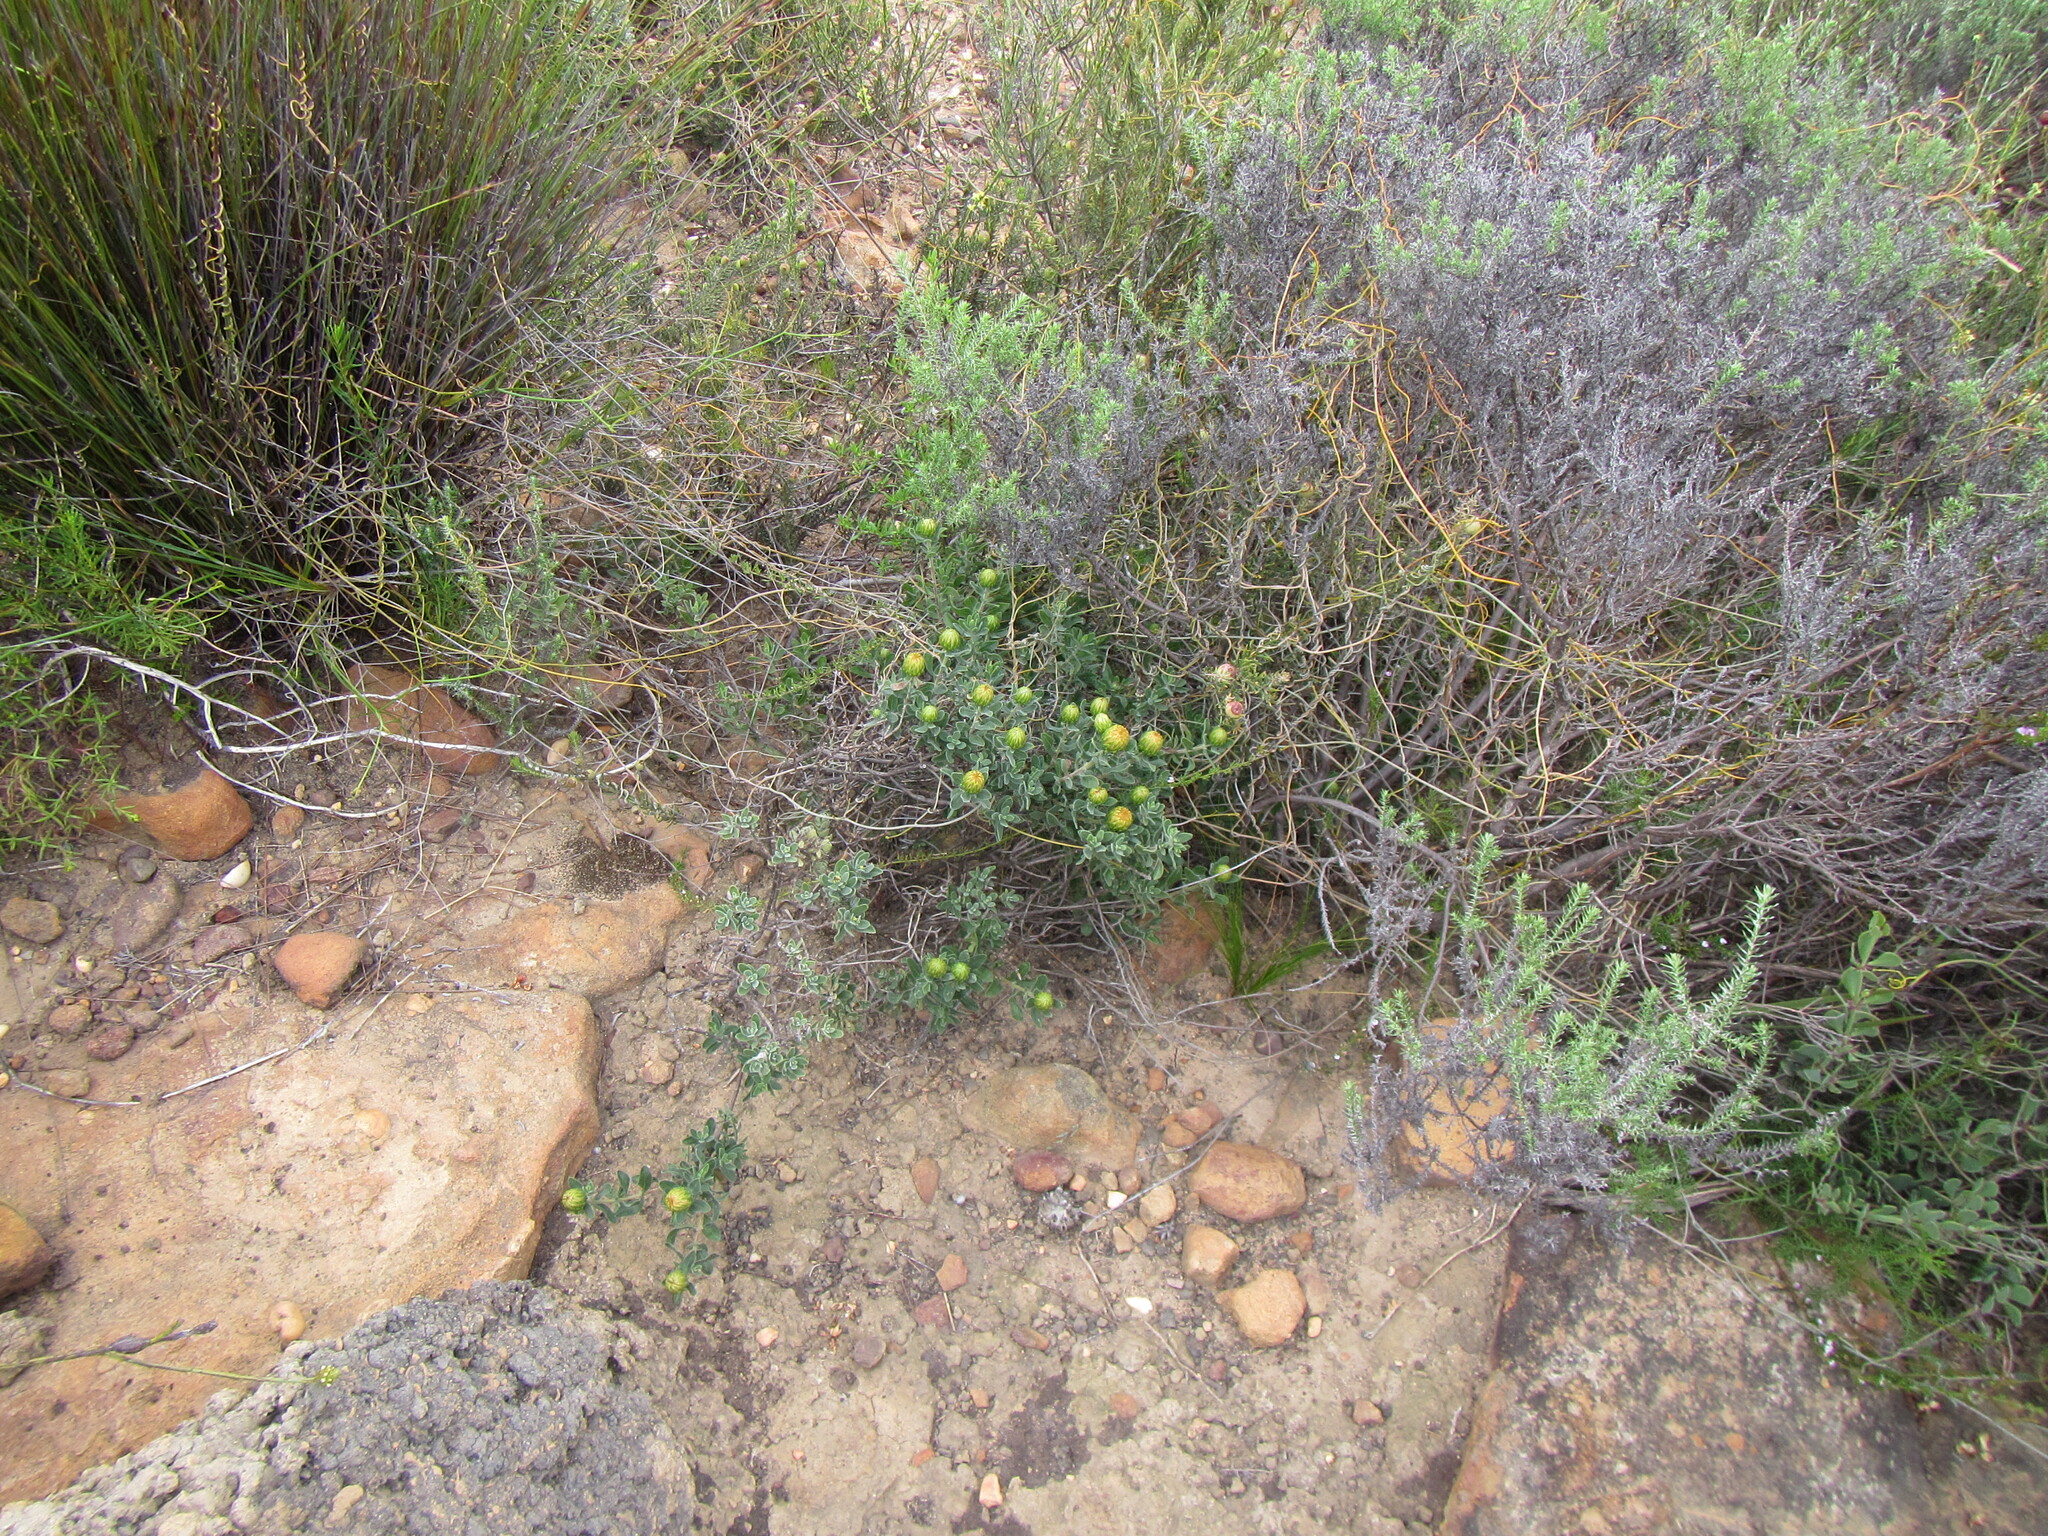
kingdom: Plantae
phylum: Tracheophyta
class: Magnoliopsida
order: Asterales
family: Asteraceae
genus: Pteronia
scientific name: Pteronia utilis
